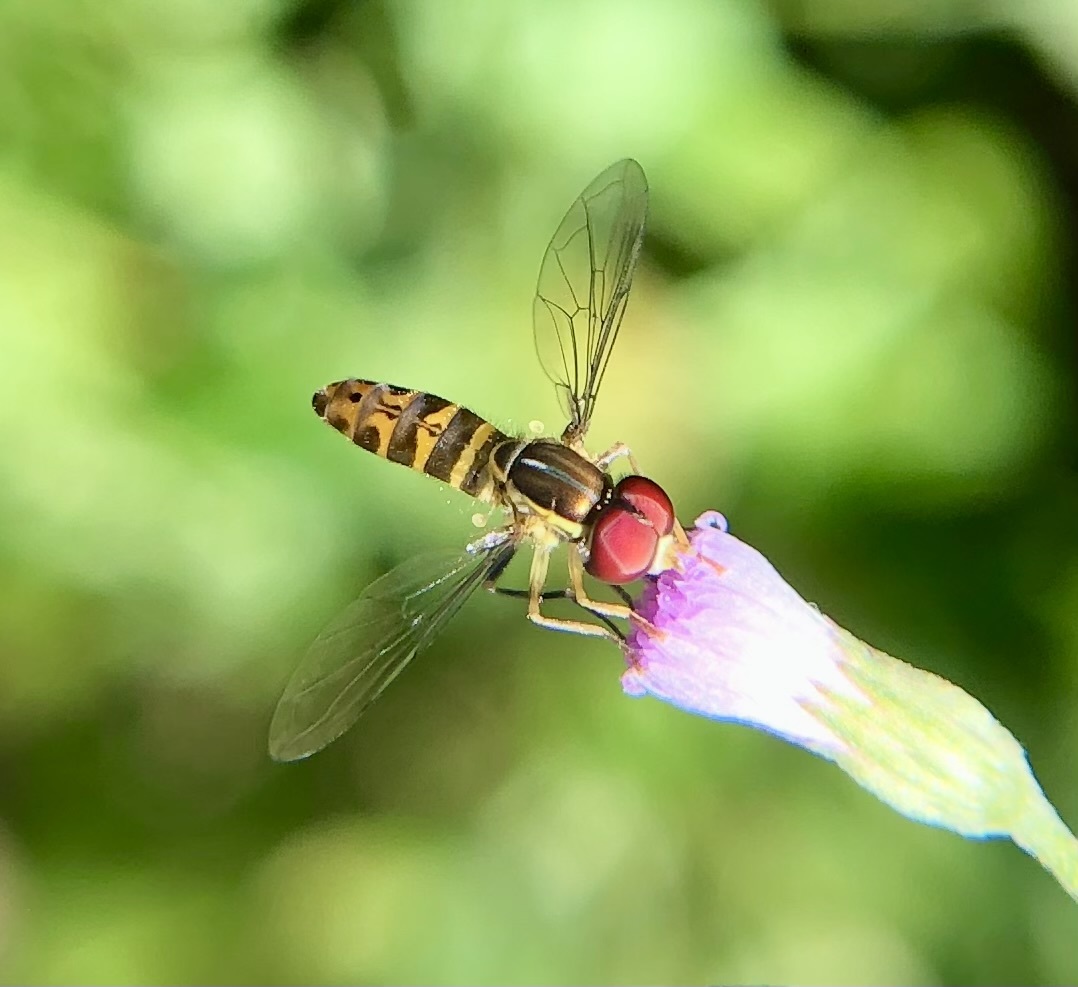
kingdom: Animalia
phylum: Arthropoda
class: Insecta
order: Diptera
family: Syrphidae
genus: Toxomerus
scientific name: Toxomerus parvulus
